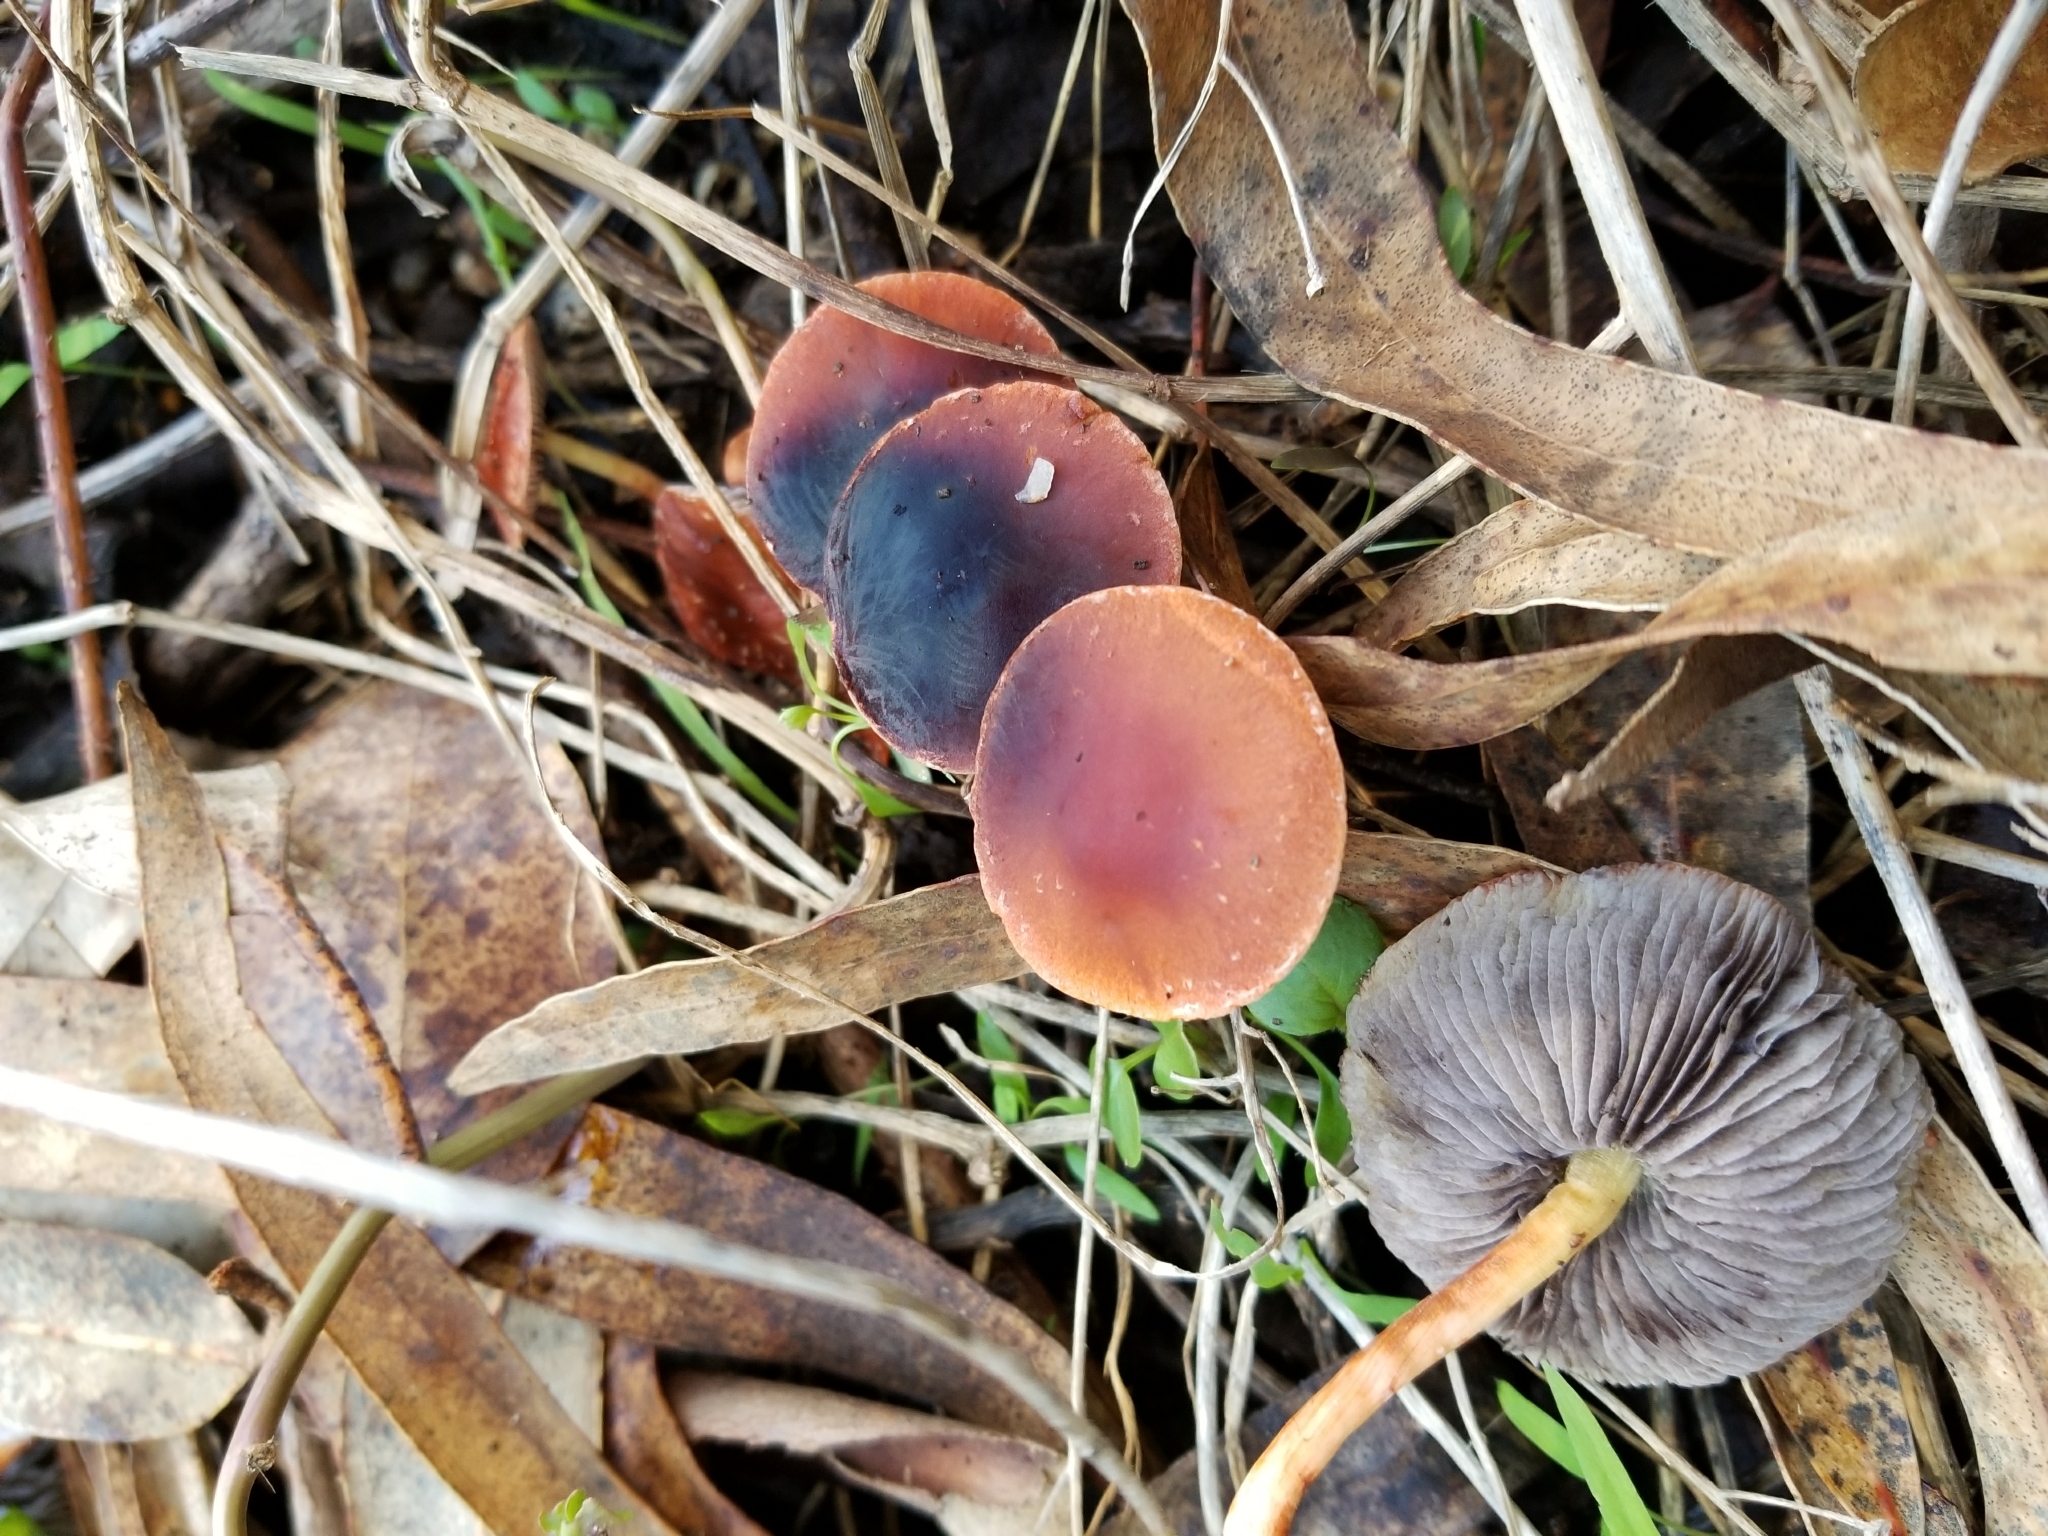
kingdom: Fungi
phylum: Basidiomycota
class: Agaricomycetes
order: Agaricales
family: Strophariaceae
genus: Leratiomyces
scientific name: Leratiomyces ceres
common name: Redlead roundhead
